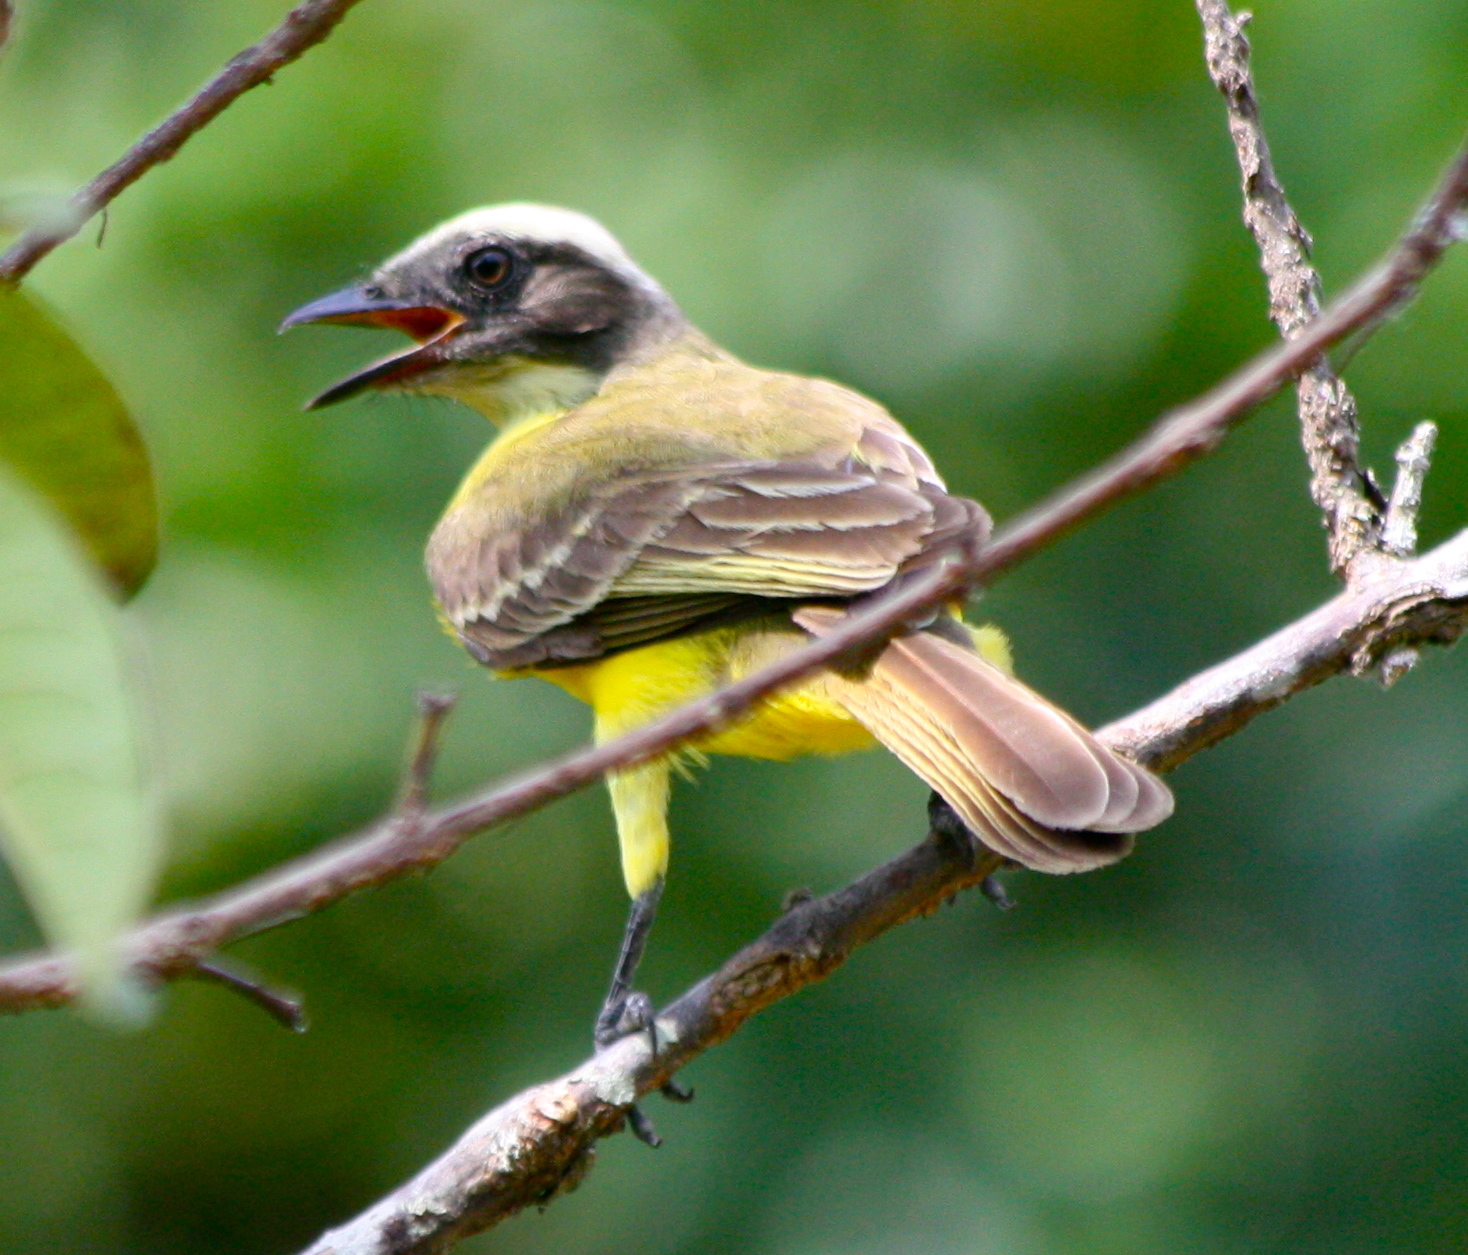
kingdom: Animalia
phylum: Chordata
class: Aves
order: Passeriformes
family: Tyrannidae
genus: Myiozetetes
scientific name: Myiozetetes similis
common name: Social flycatcher
